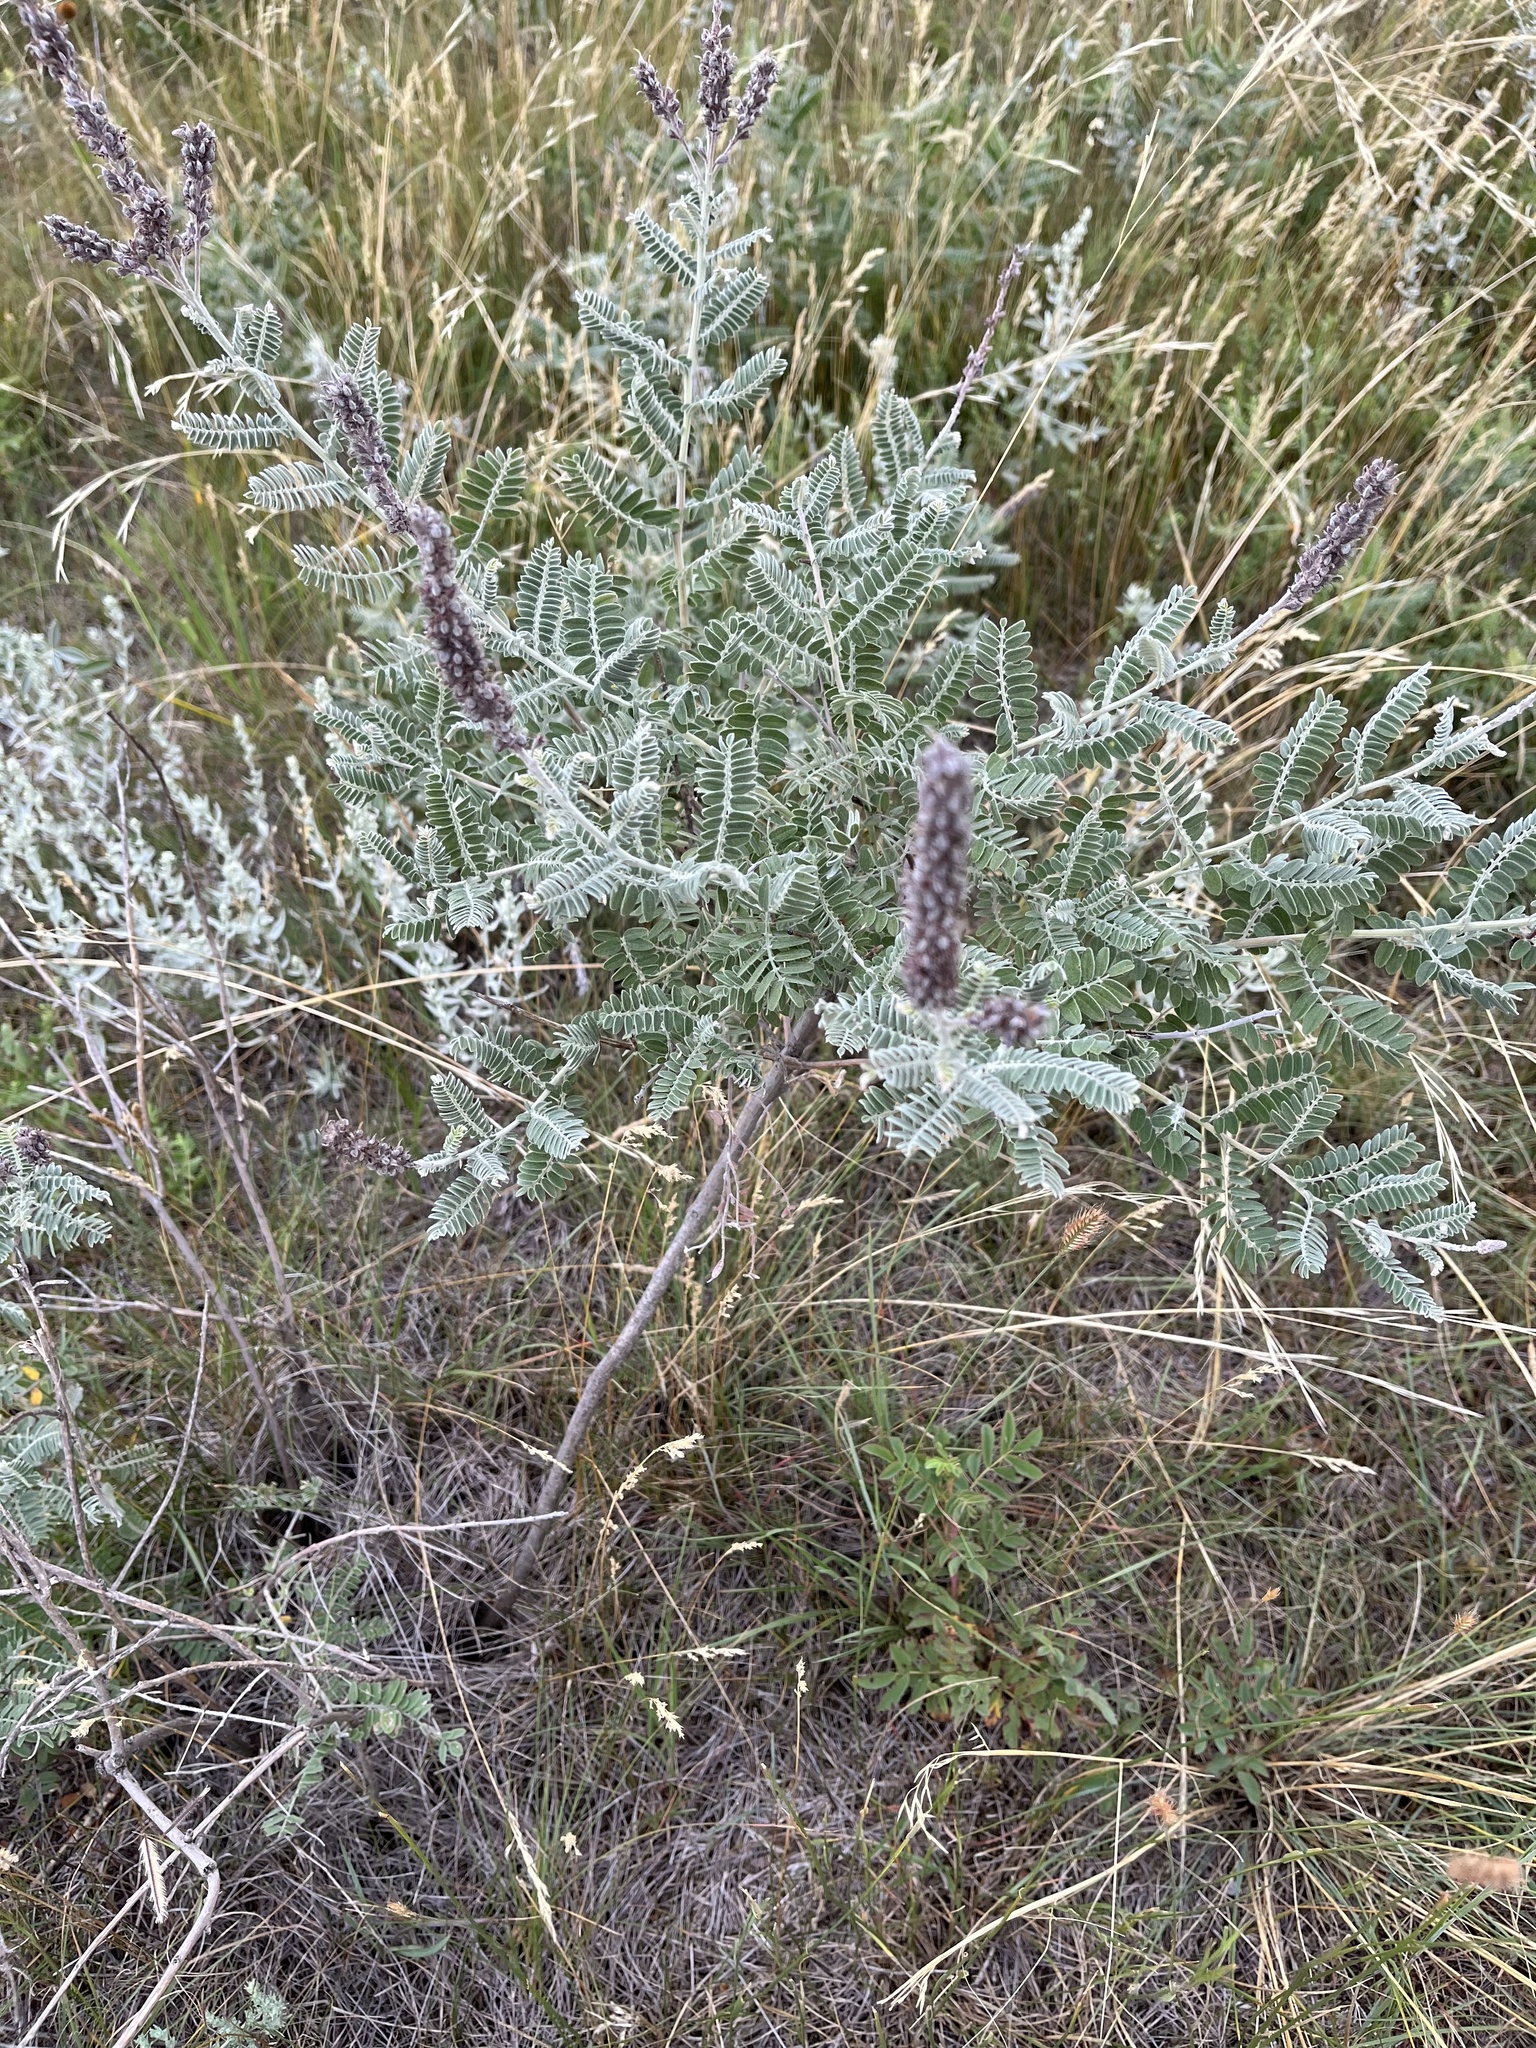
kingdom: Plantae
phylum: Tracheophyta
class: Magnoliopsida
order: Fabales
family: Fabaceae
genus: Amorpha
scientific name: Amorpha canescens
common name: Leadplant
